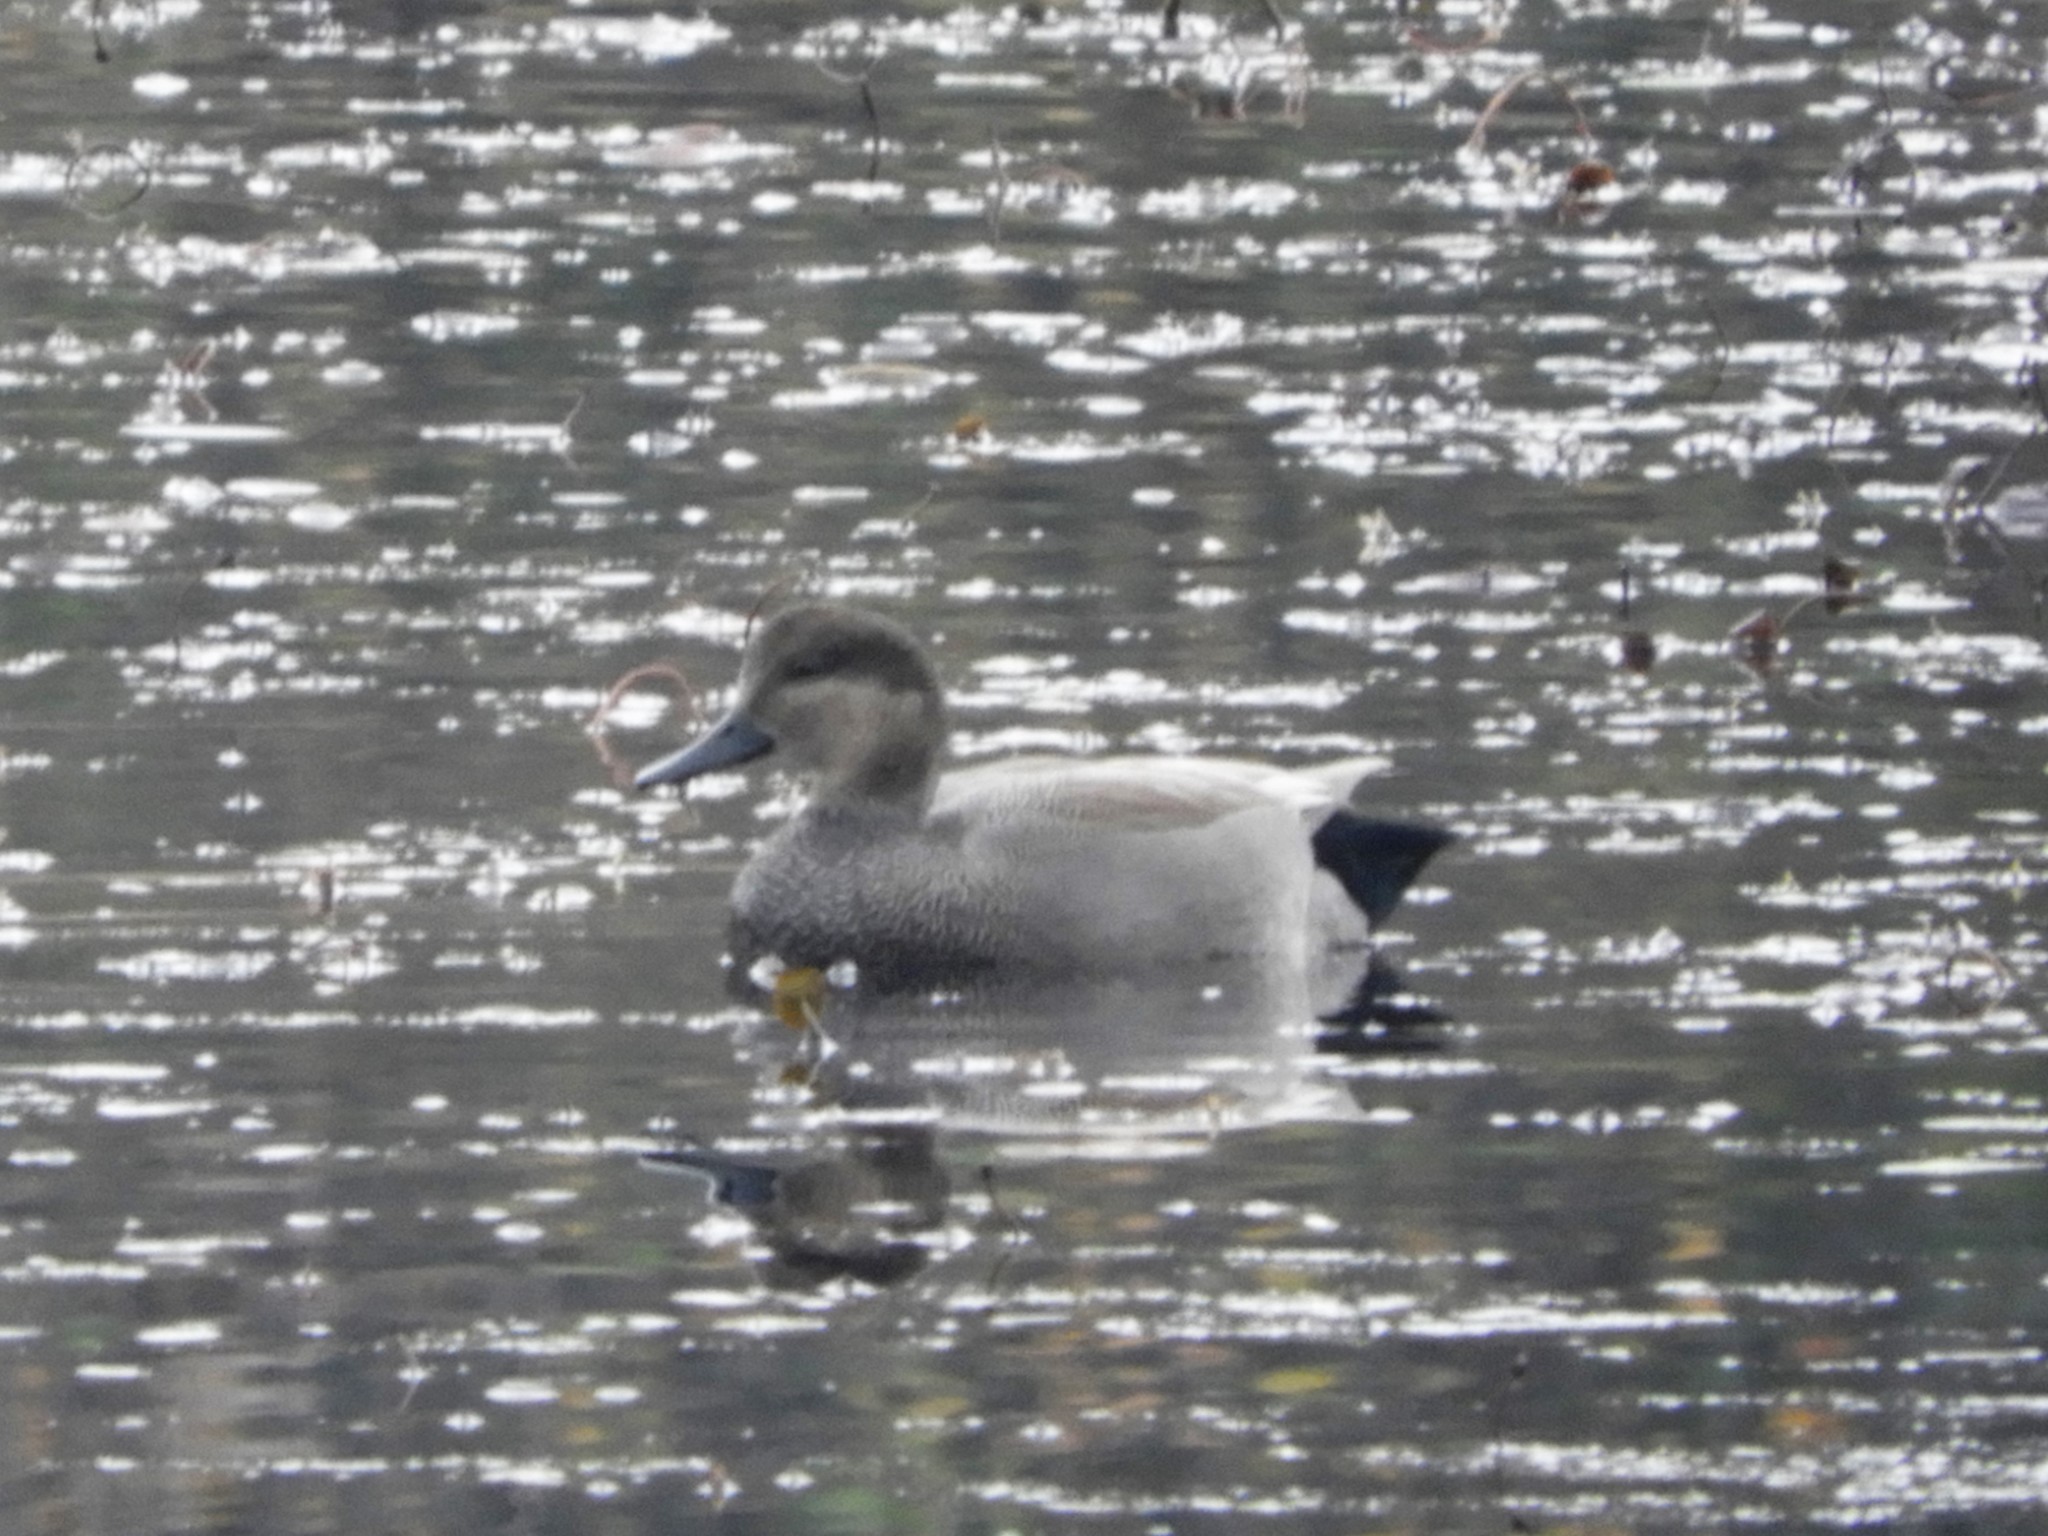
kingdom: Animalia
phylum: Chordata
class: Aves
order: Anseriformes
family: Anatidae
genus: Mareca
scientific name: Mareca strepera
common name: Gadwall
